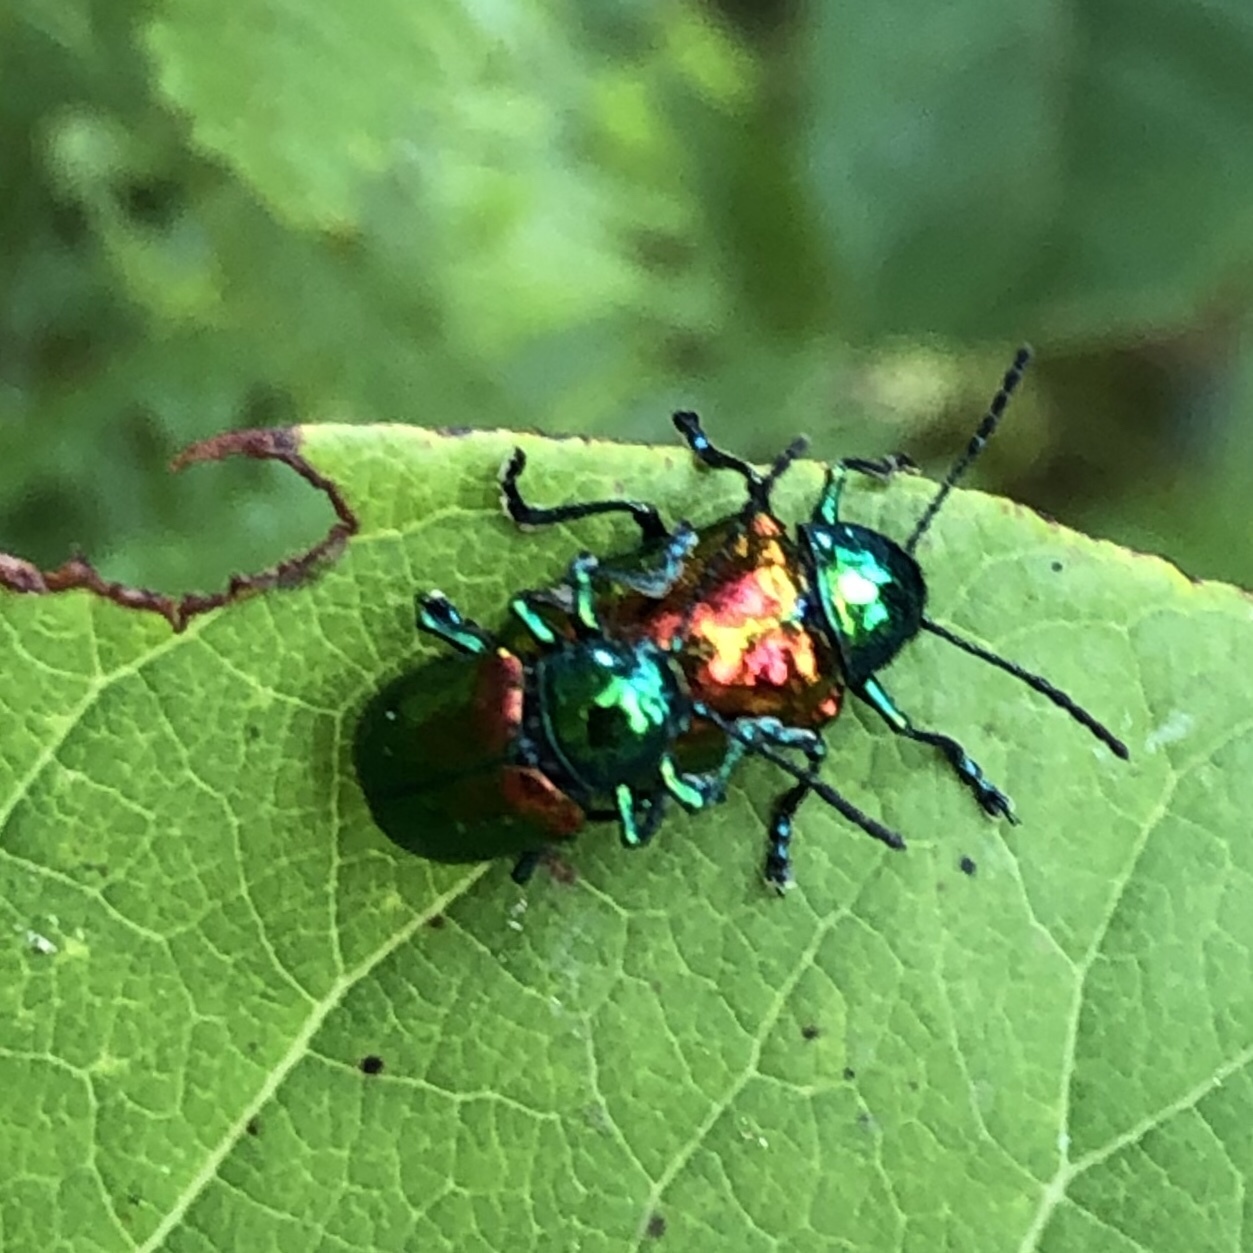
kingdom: Animalia
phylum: Arthropoda
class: Insecta
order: Coleoptera
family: Chrysomelidae
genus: Chrysochus
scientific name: Chrysochus auratus
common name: Dogbane leaf beetle
